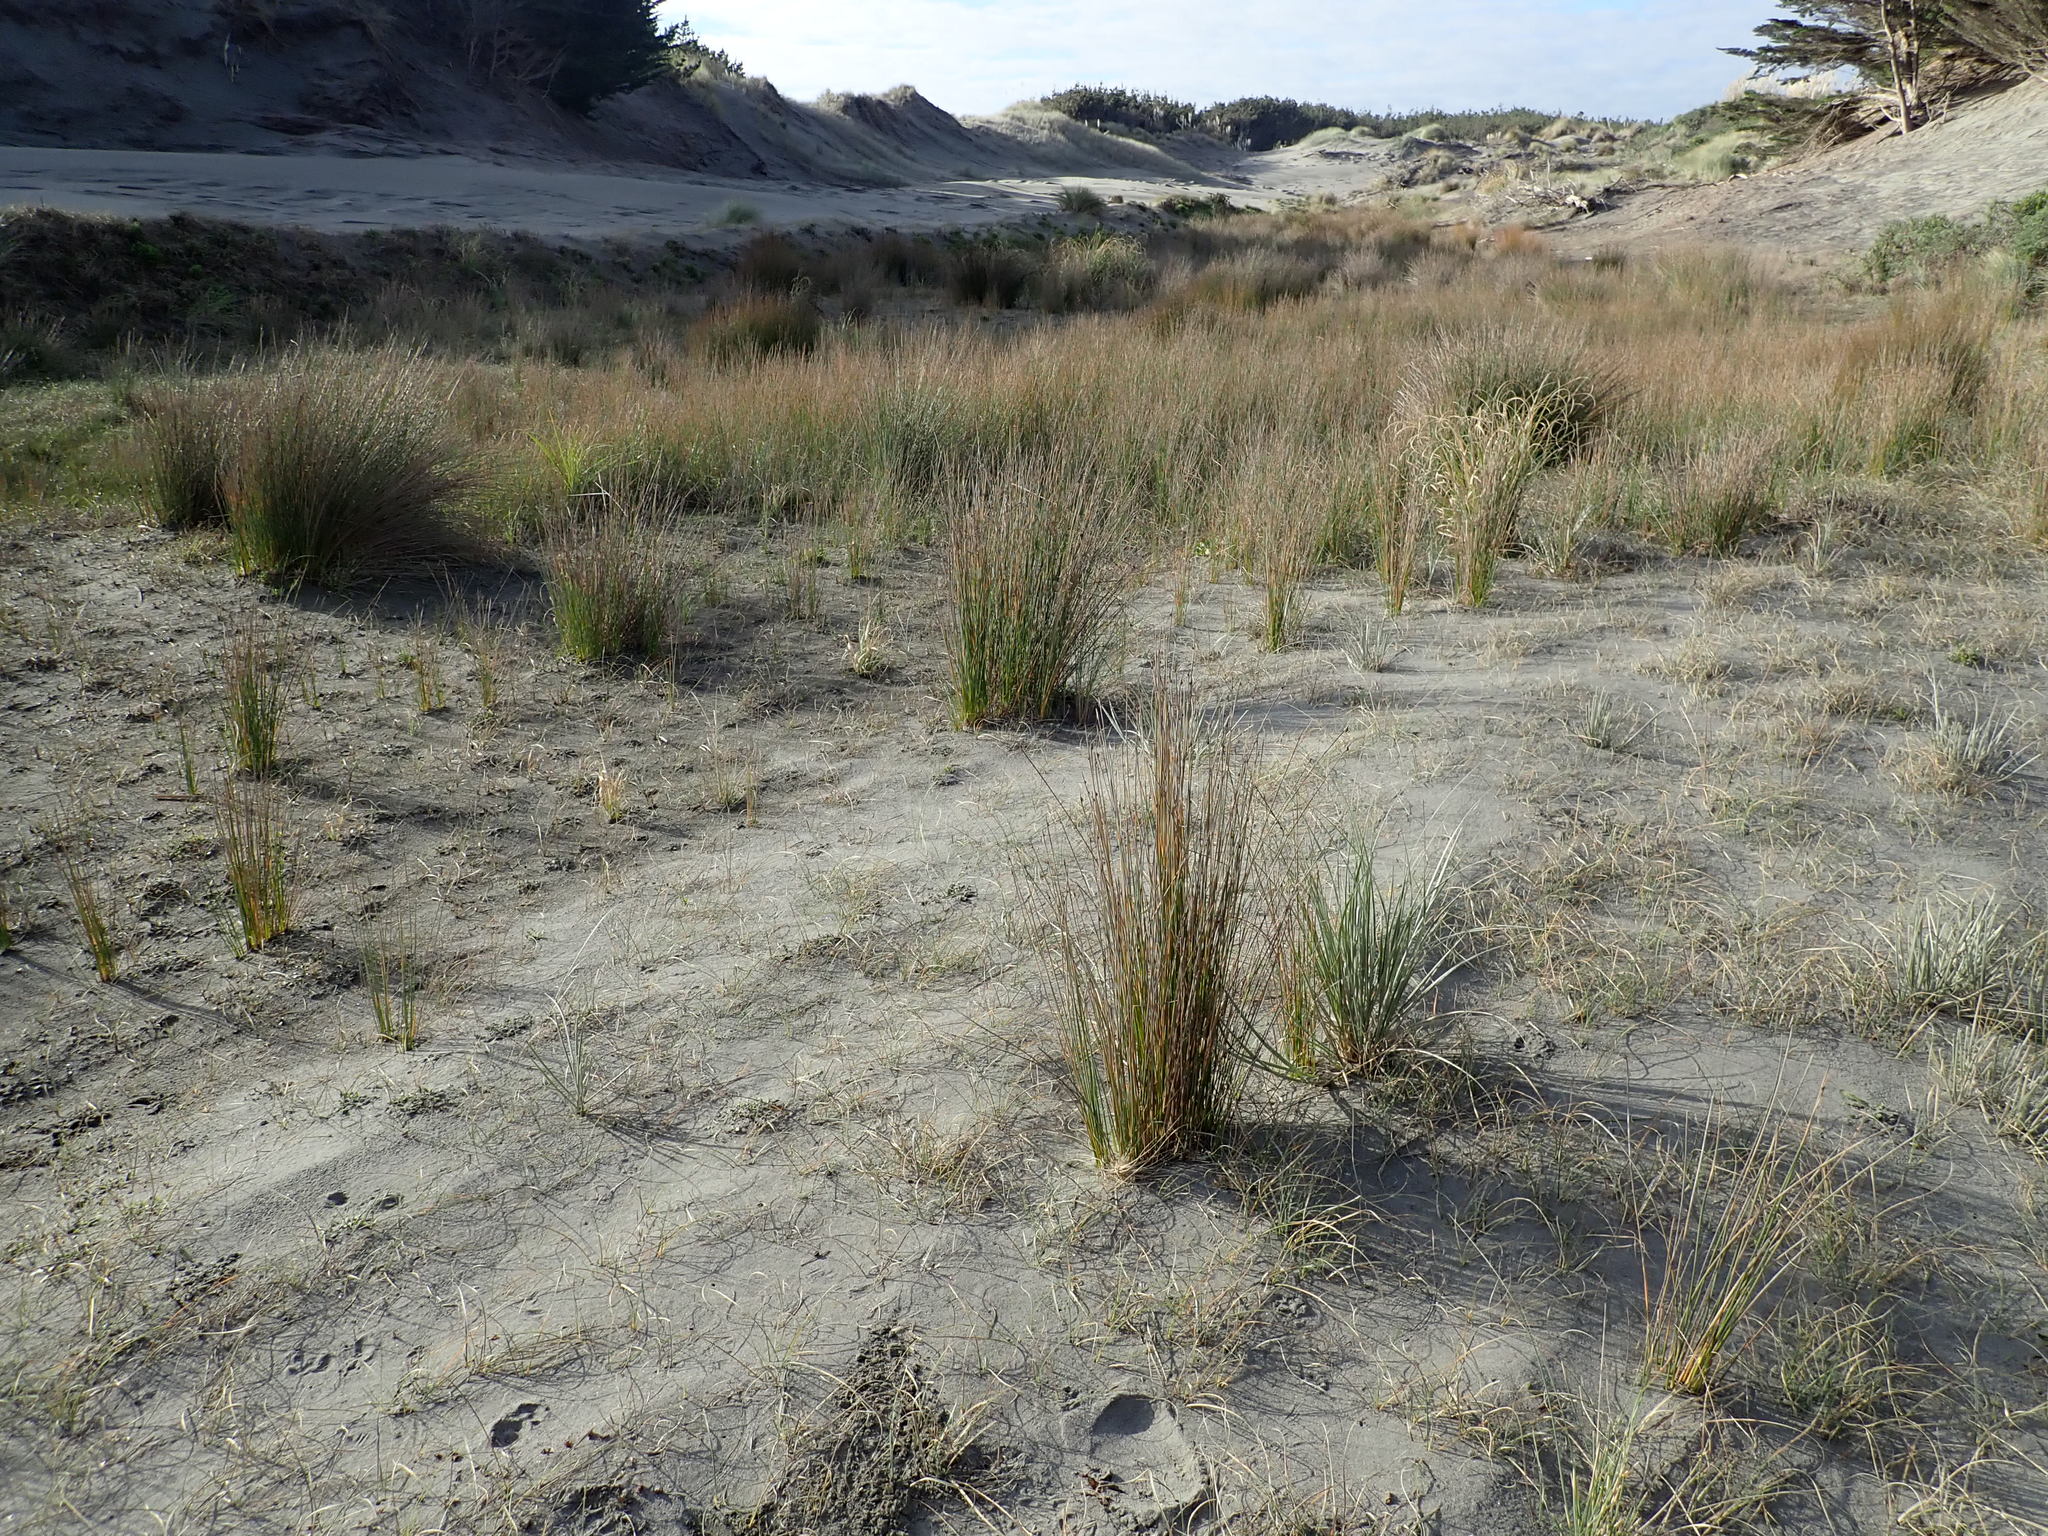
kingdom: Plantae
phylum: Tracheophyta
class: Liliopsida
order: Poales
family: Cyperaceae
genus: Ficinia
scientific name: Ficinia nodosa
